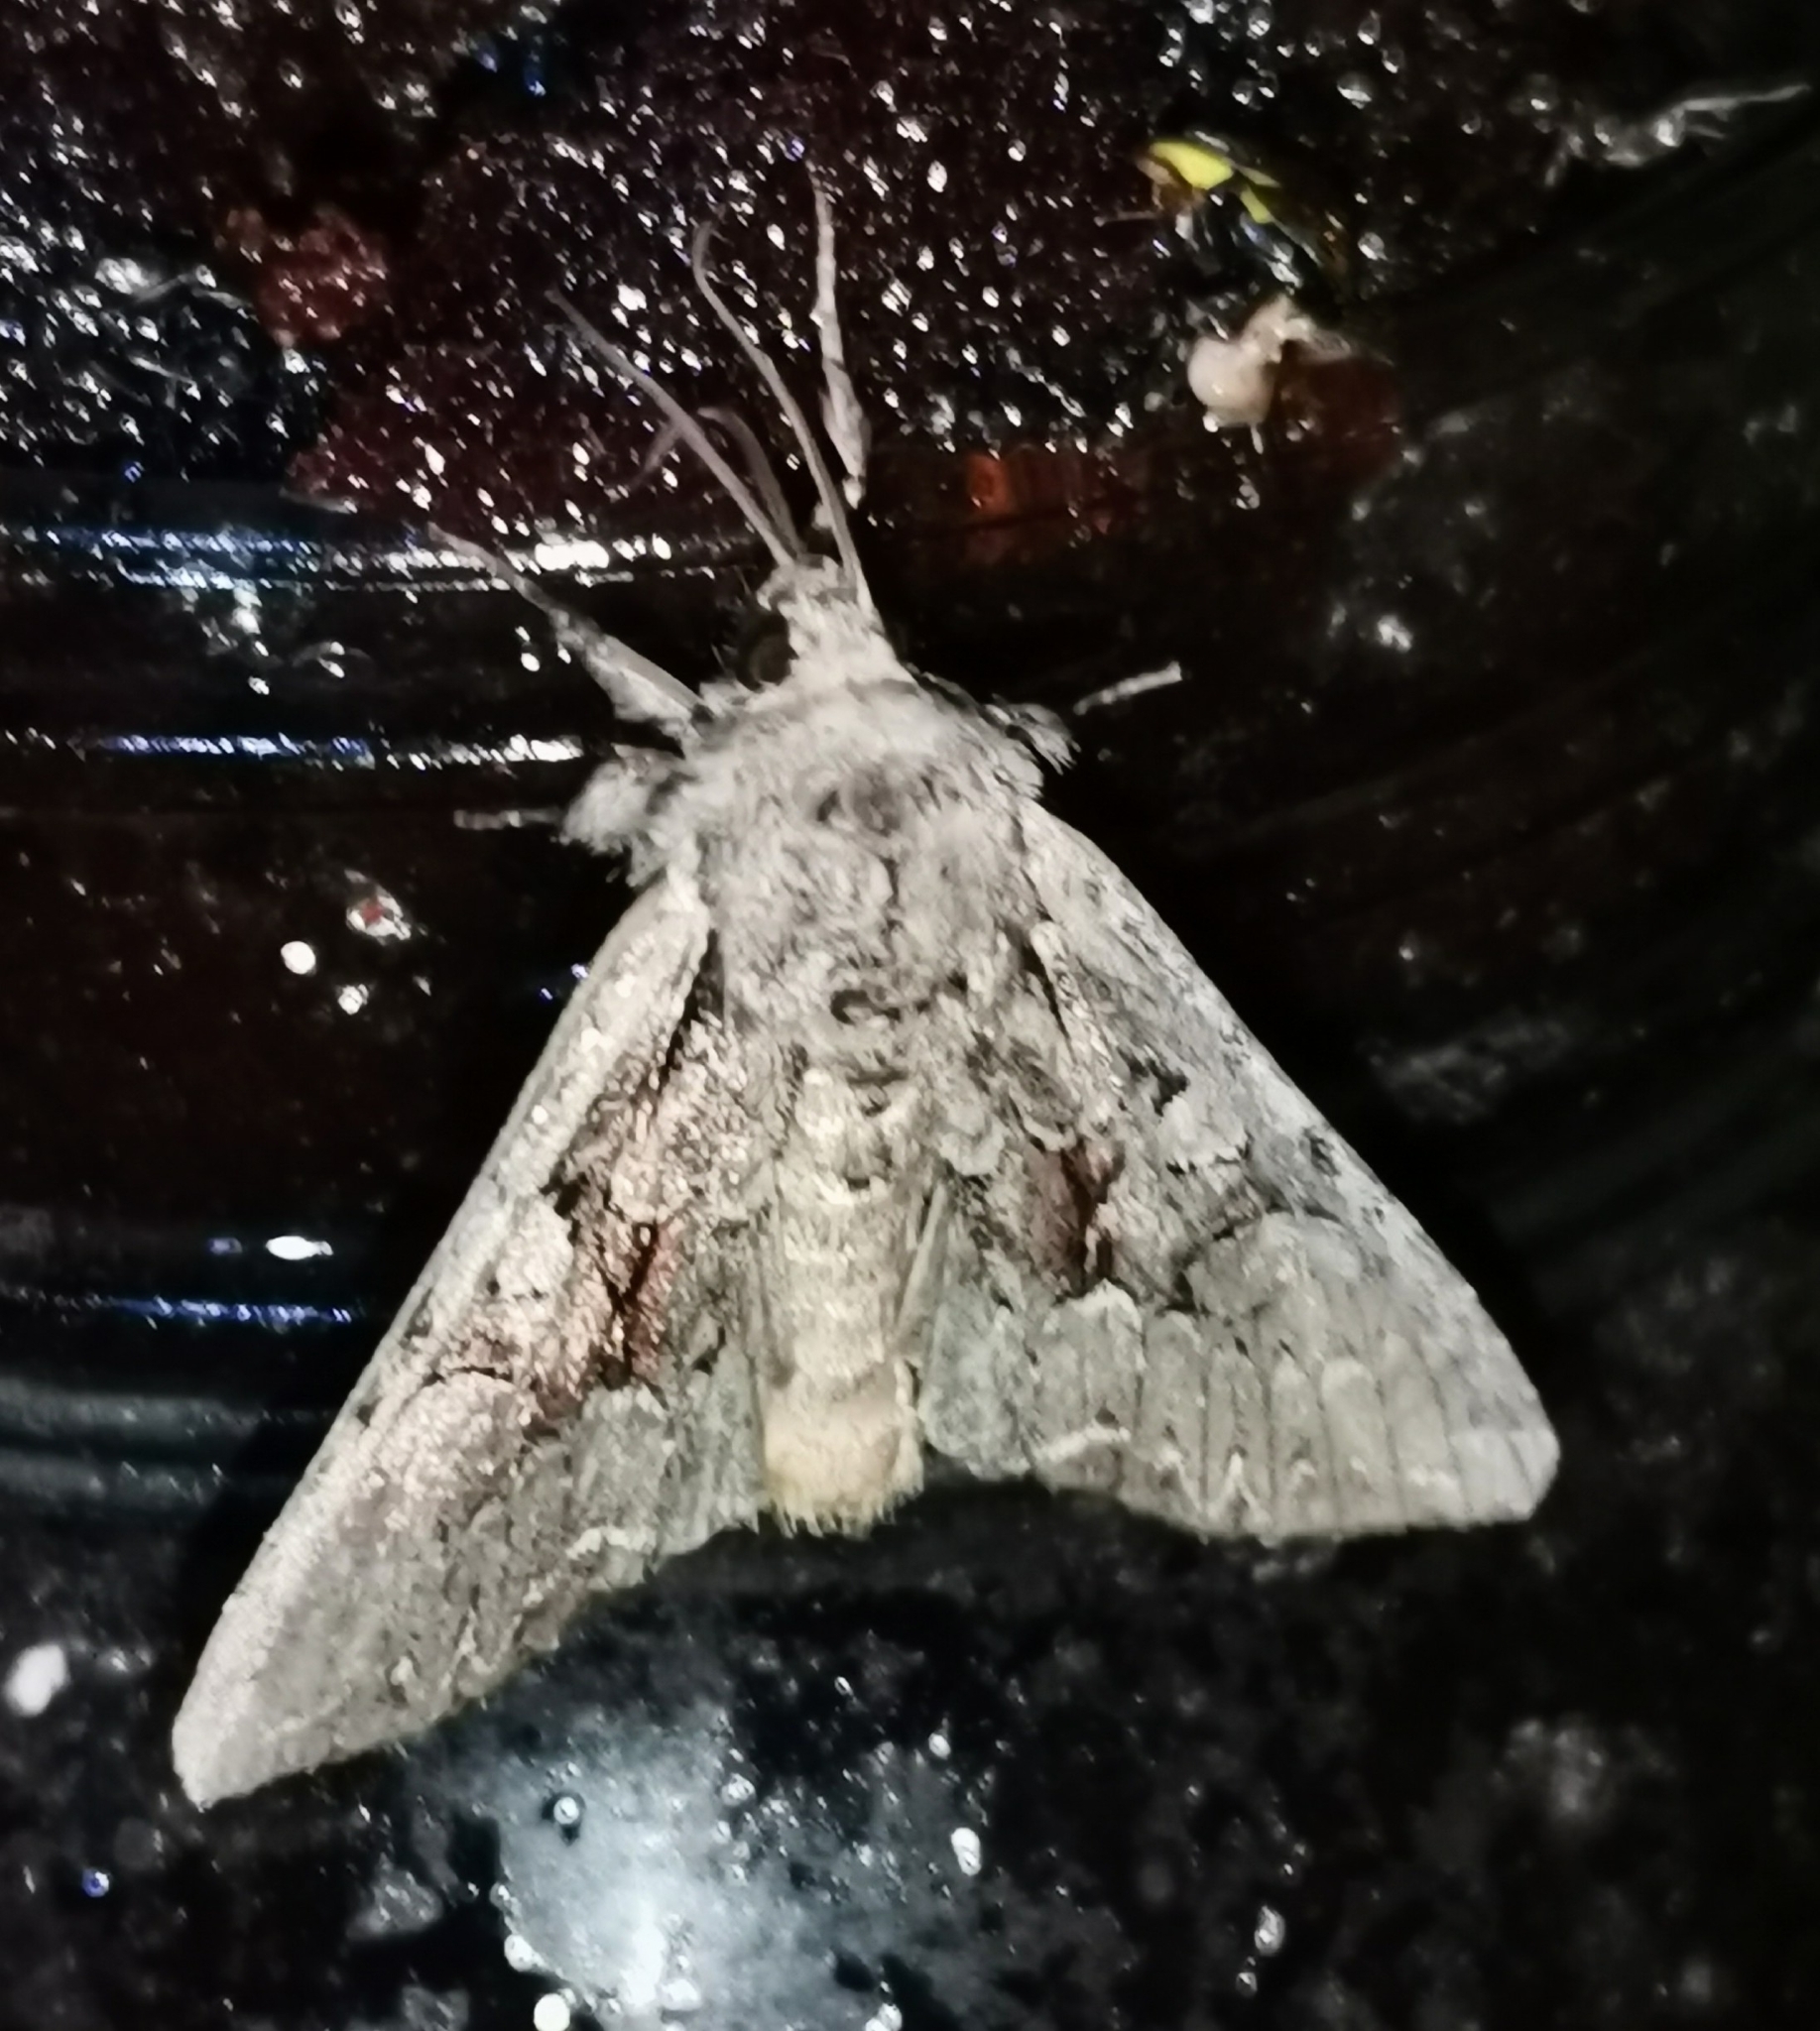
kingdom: Animalia
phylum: Arthropoda
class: Insecta
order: Lepidoptera
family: Noctuidae
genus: Lacanobia
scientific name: Lacanobia thalassina
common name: Pale-shouldered brocade
